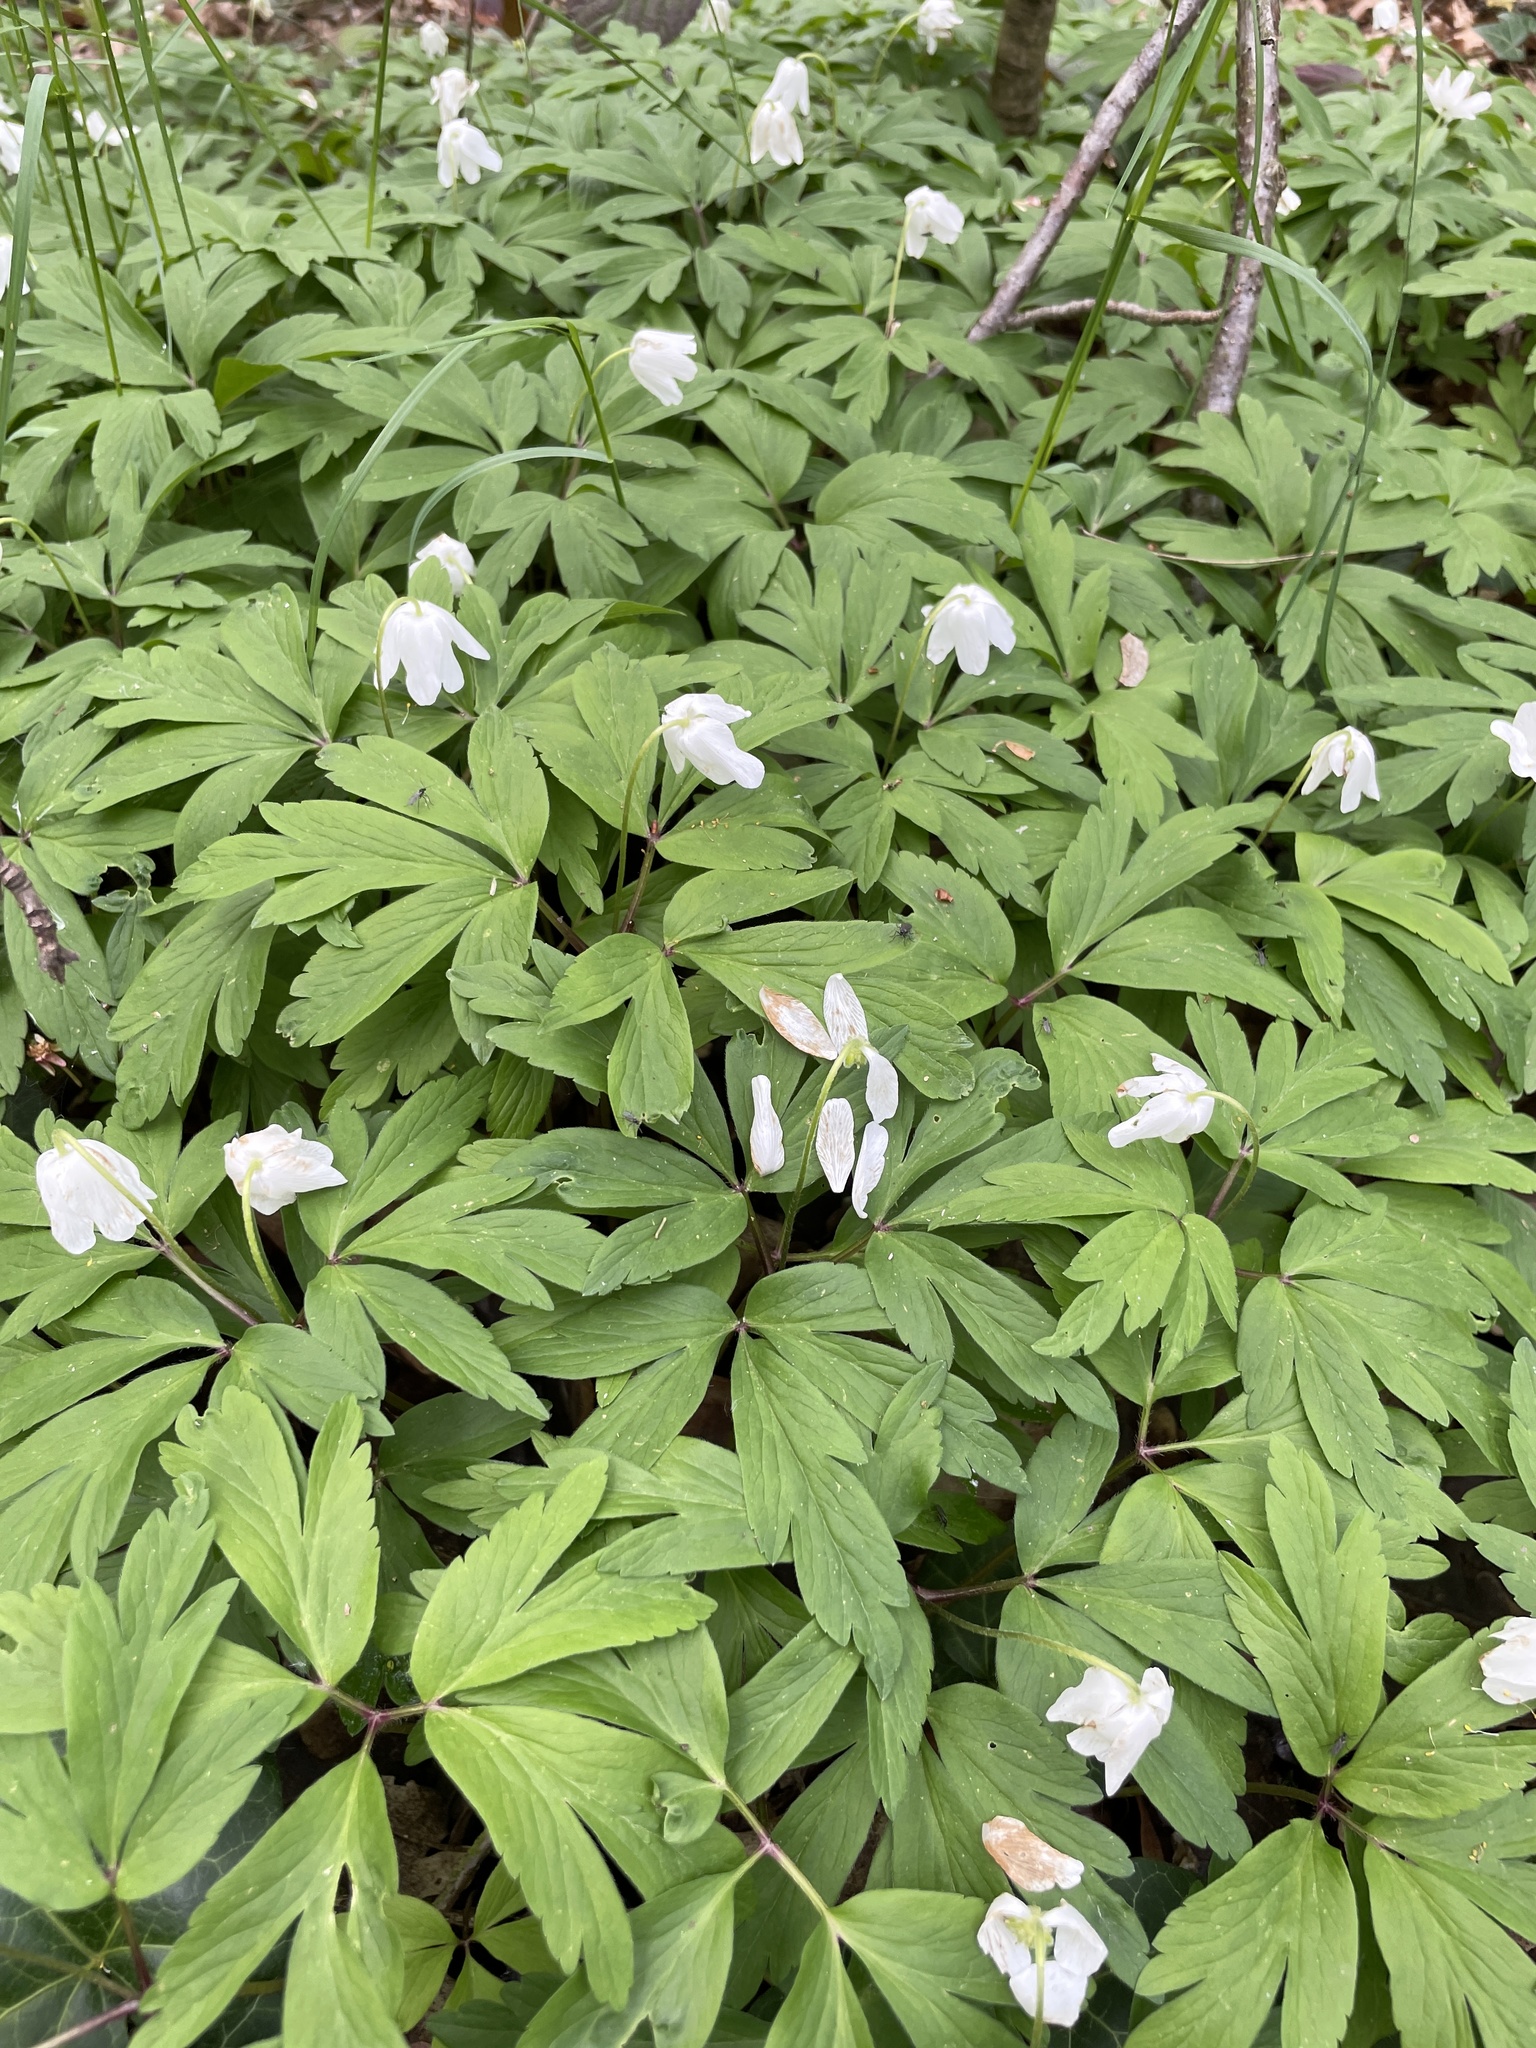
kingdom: Plantae
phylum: Tracheophyta
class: Magnoliopsida
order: Ranunculales
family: Ranunculaceae
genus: Anemone
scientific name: Anemone nemorosa
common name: Wood anemone
